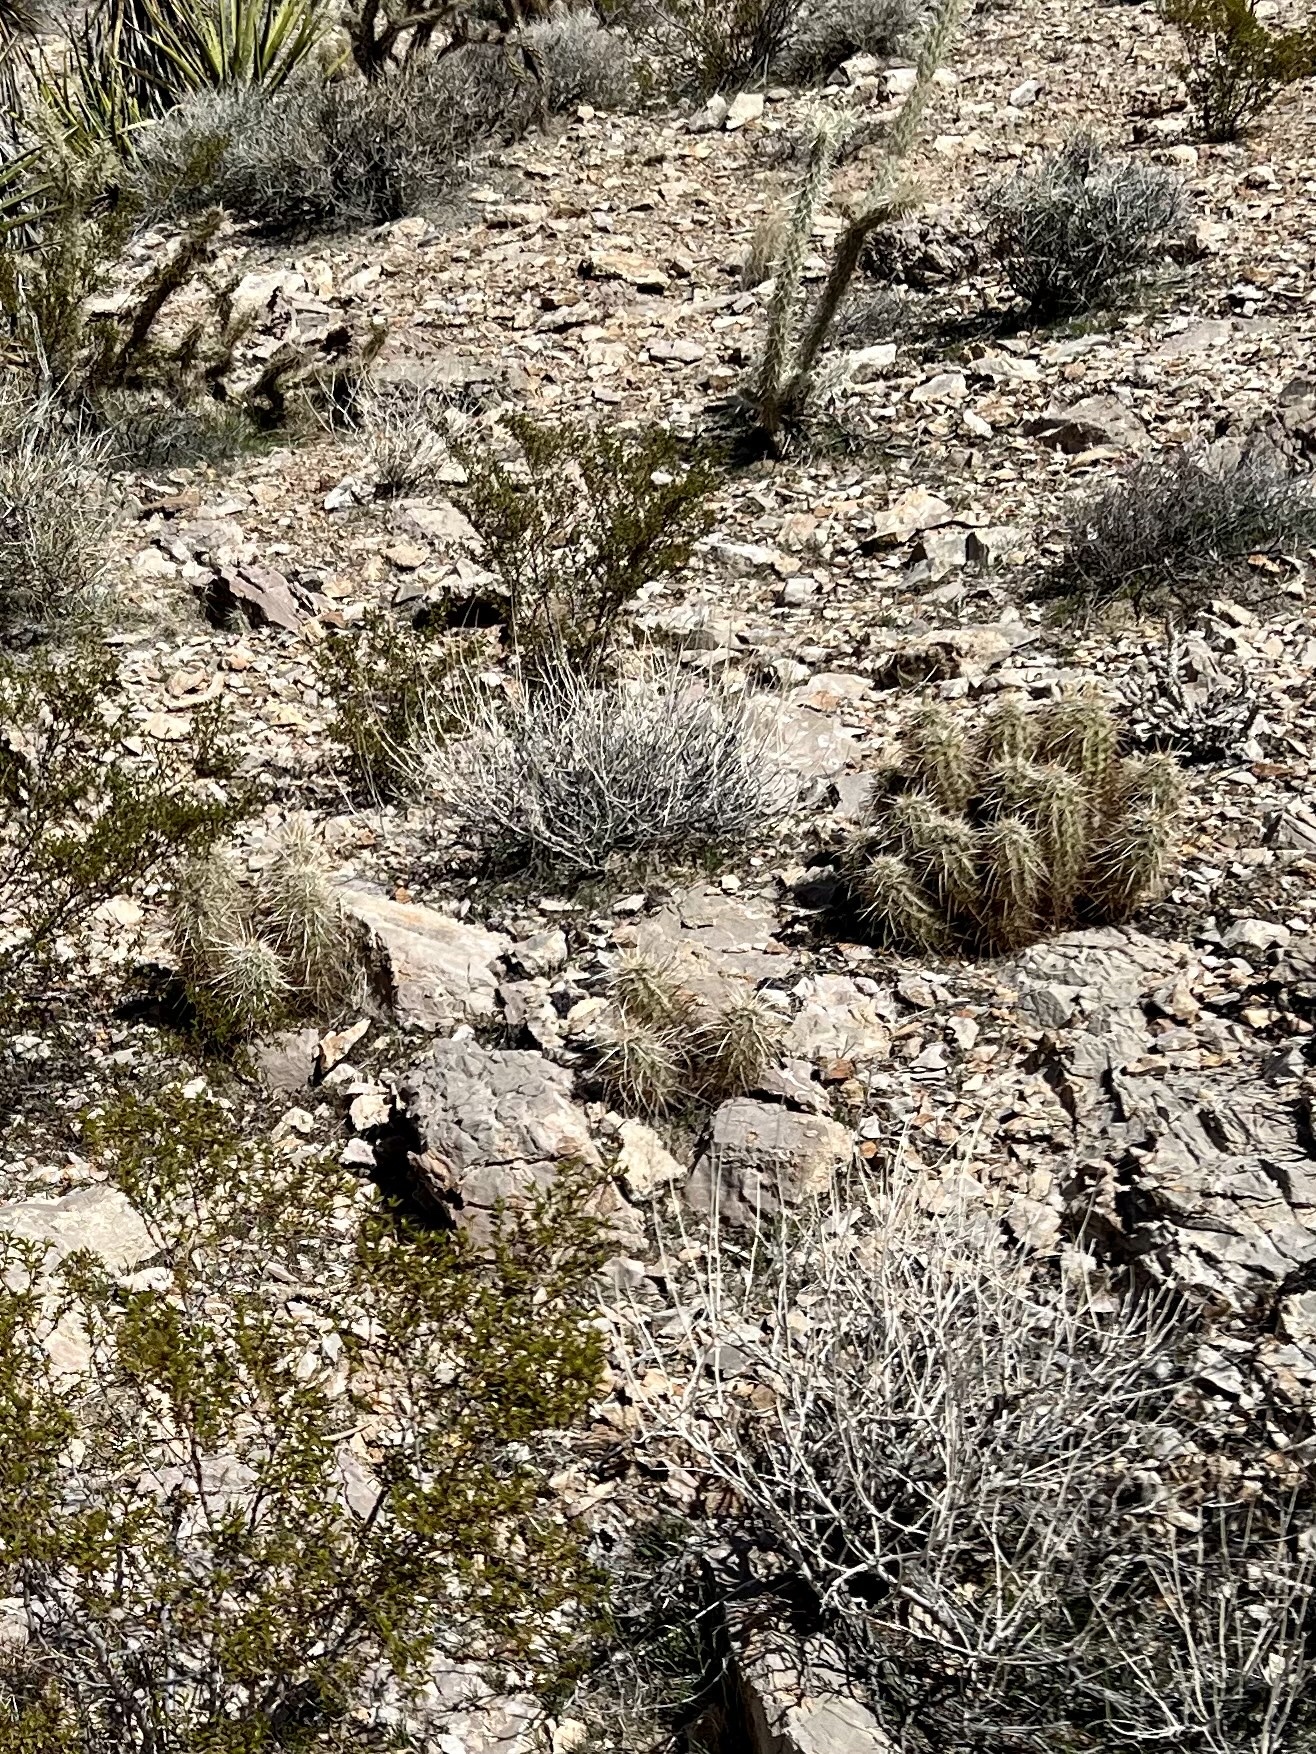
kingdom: Plantae
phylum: Tracheophyta
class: Magnoliopsida
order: Caryophyllales
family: Cactaceae
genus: Echinocereus
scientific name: Echinocereus engelmannii
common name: Engelmann's hedgehog cactus
